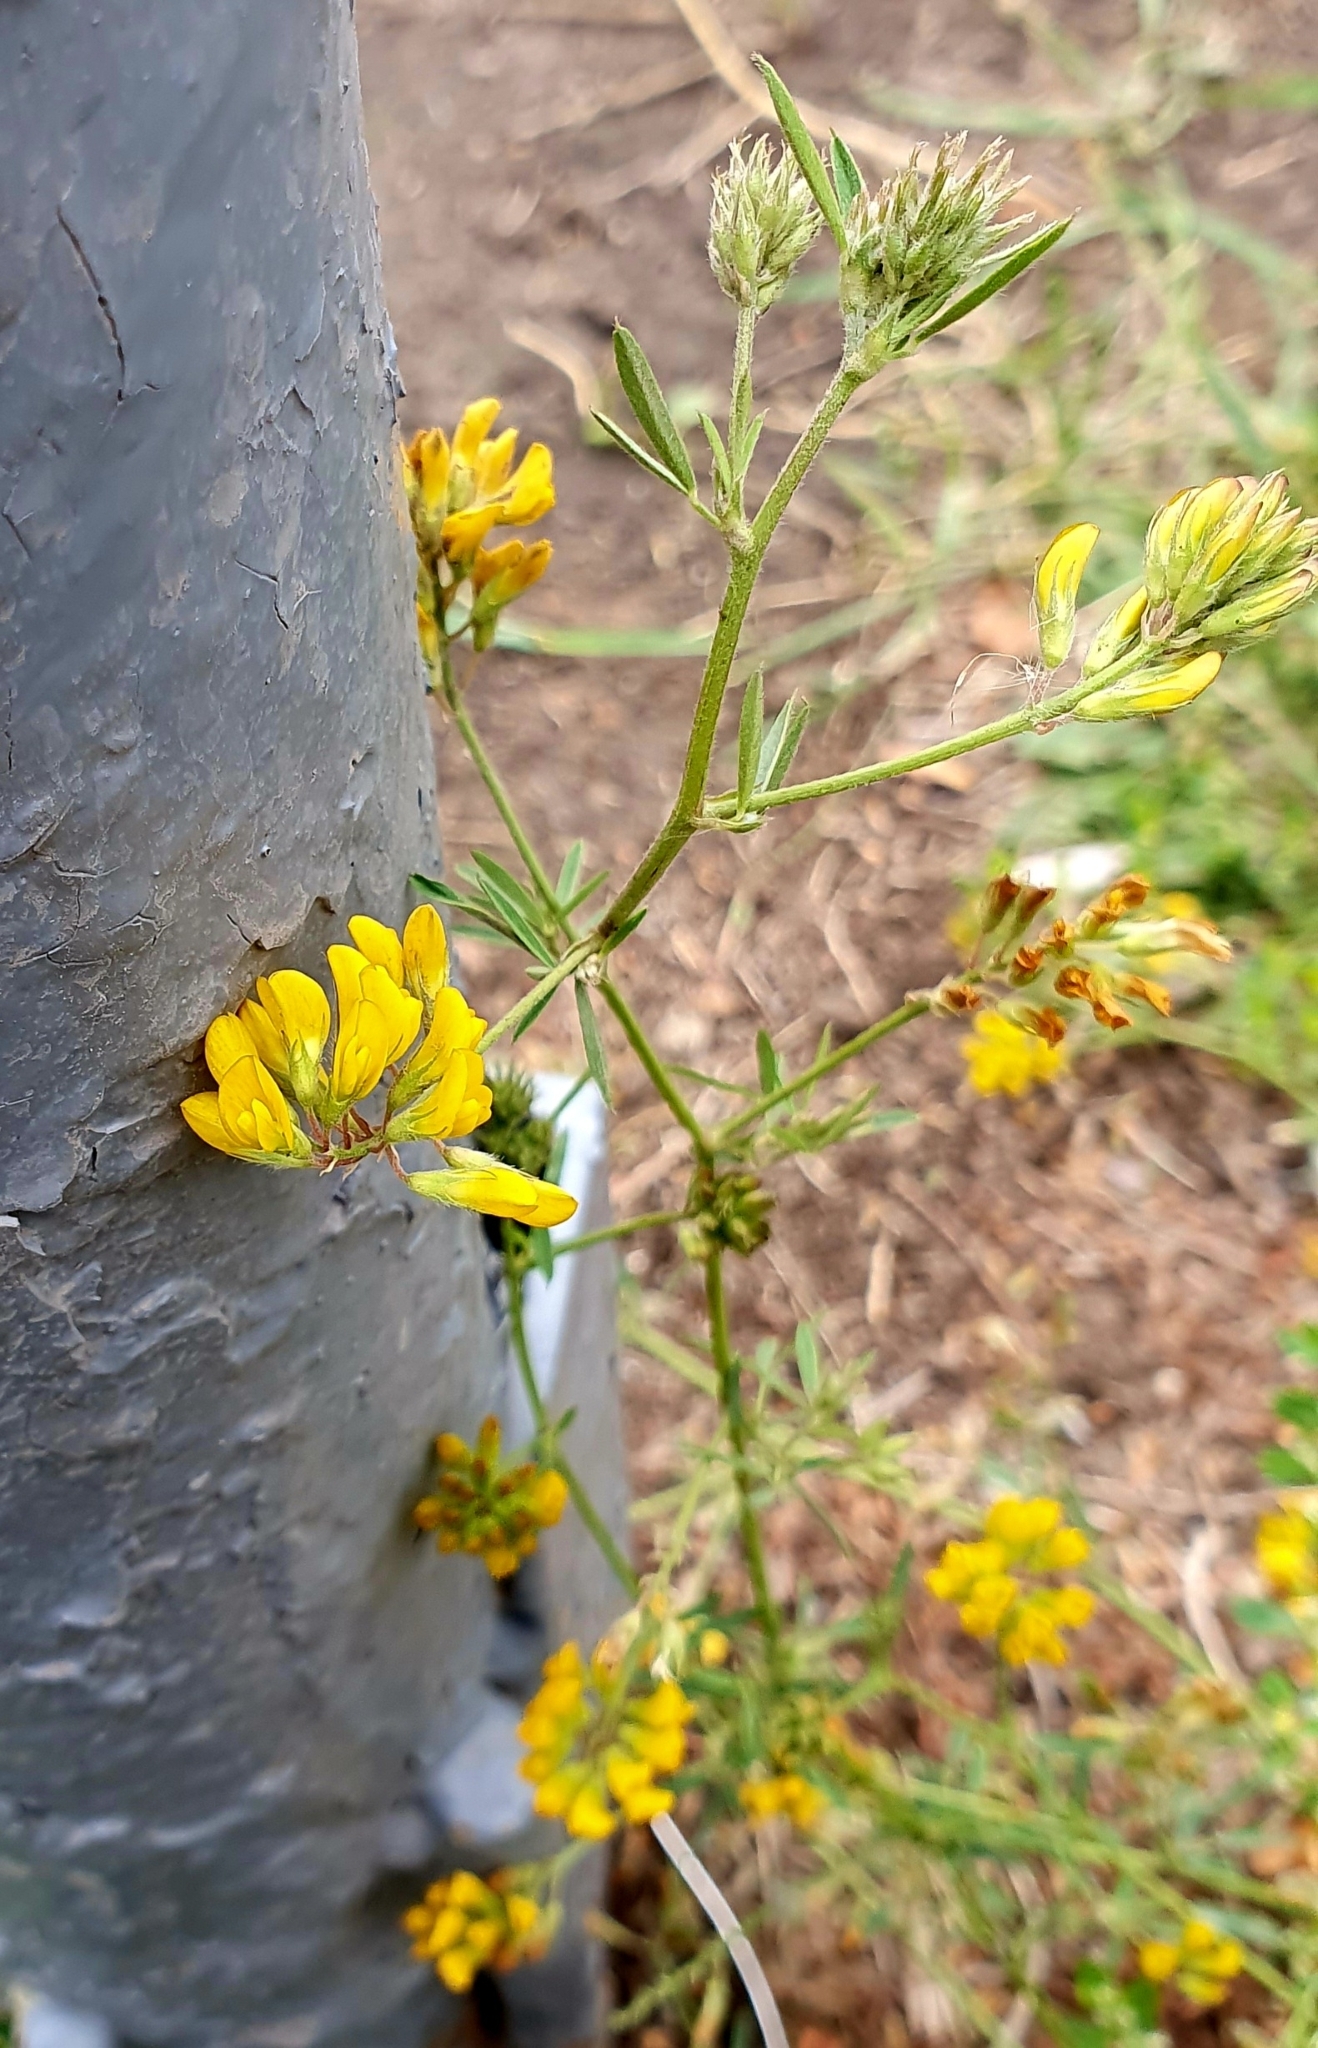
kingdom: Plantae
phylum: Tracheophyta
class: Magnoliopsida
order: Fabales
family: Fabaceae
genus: Medicago
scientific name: Medicago falcata
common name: Sickle medick
